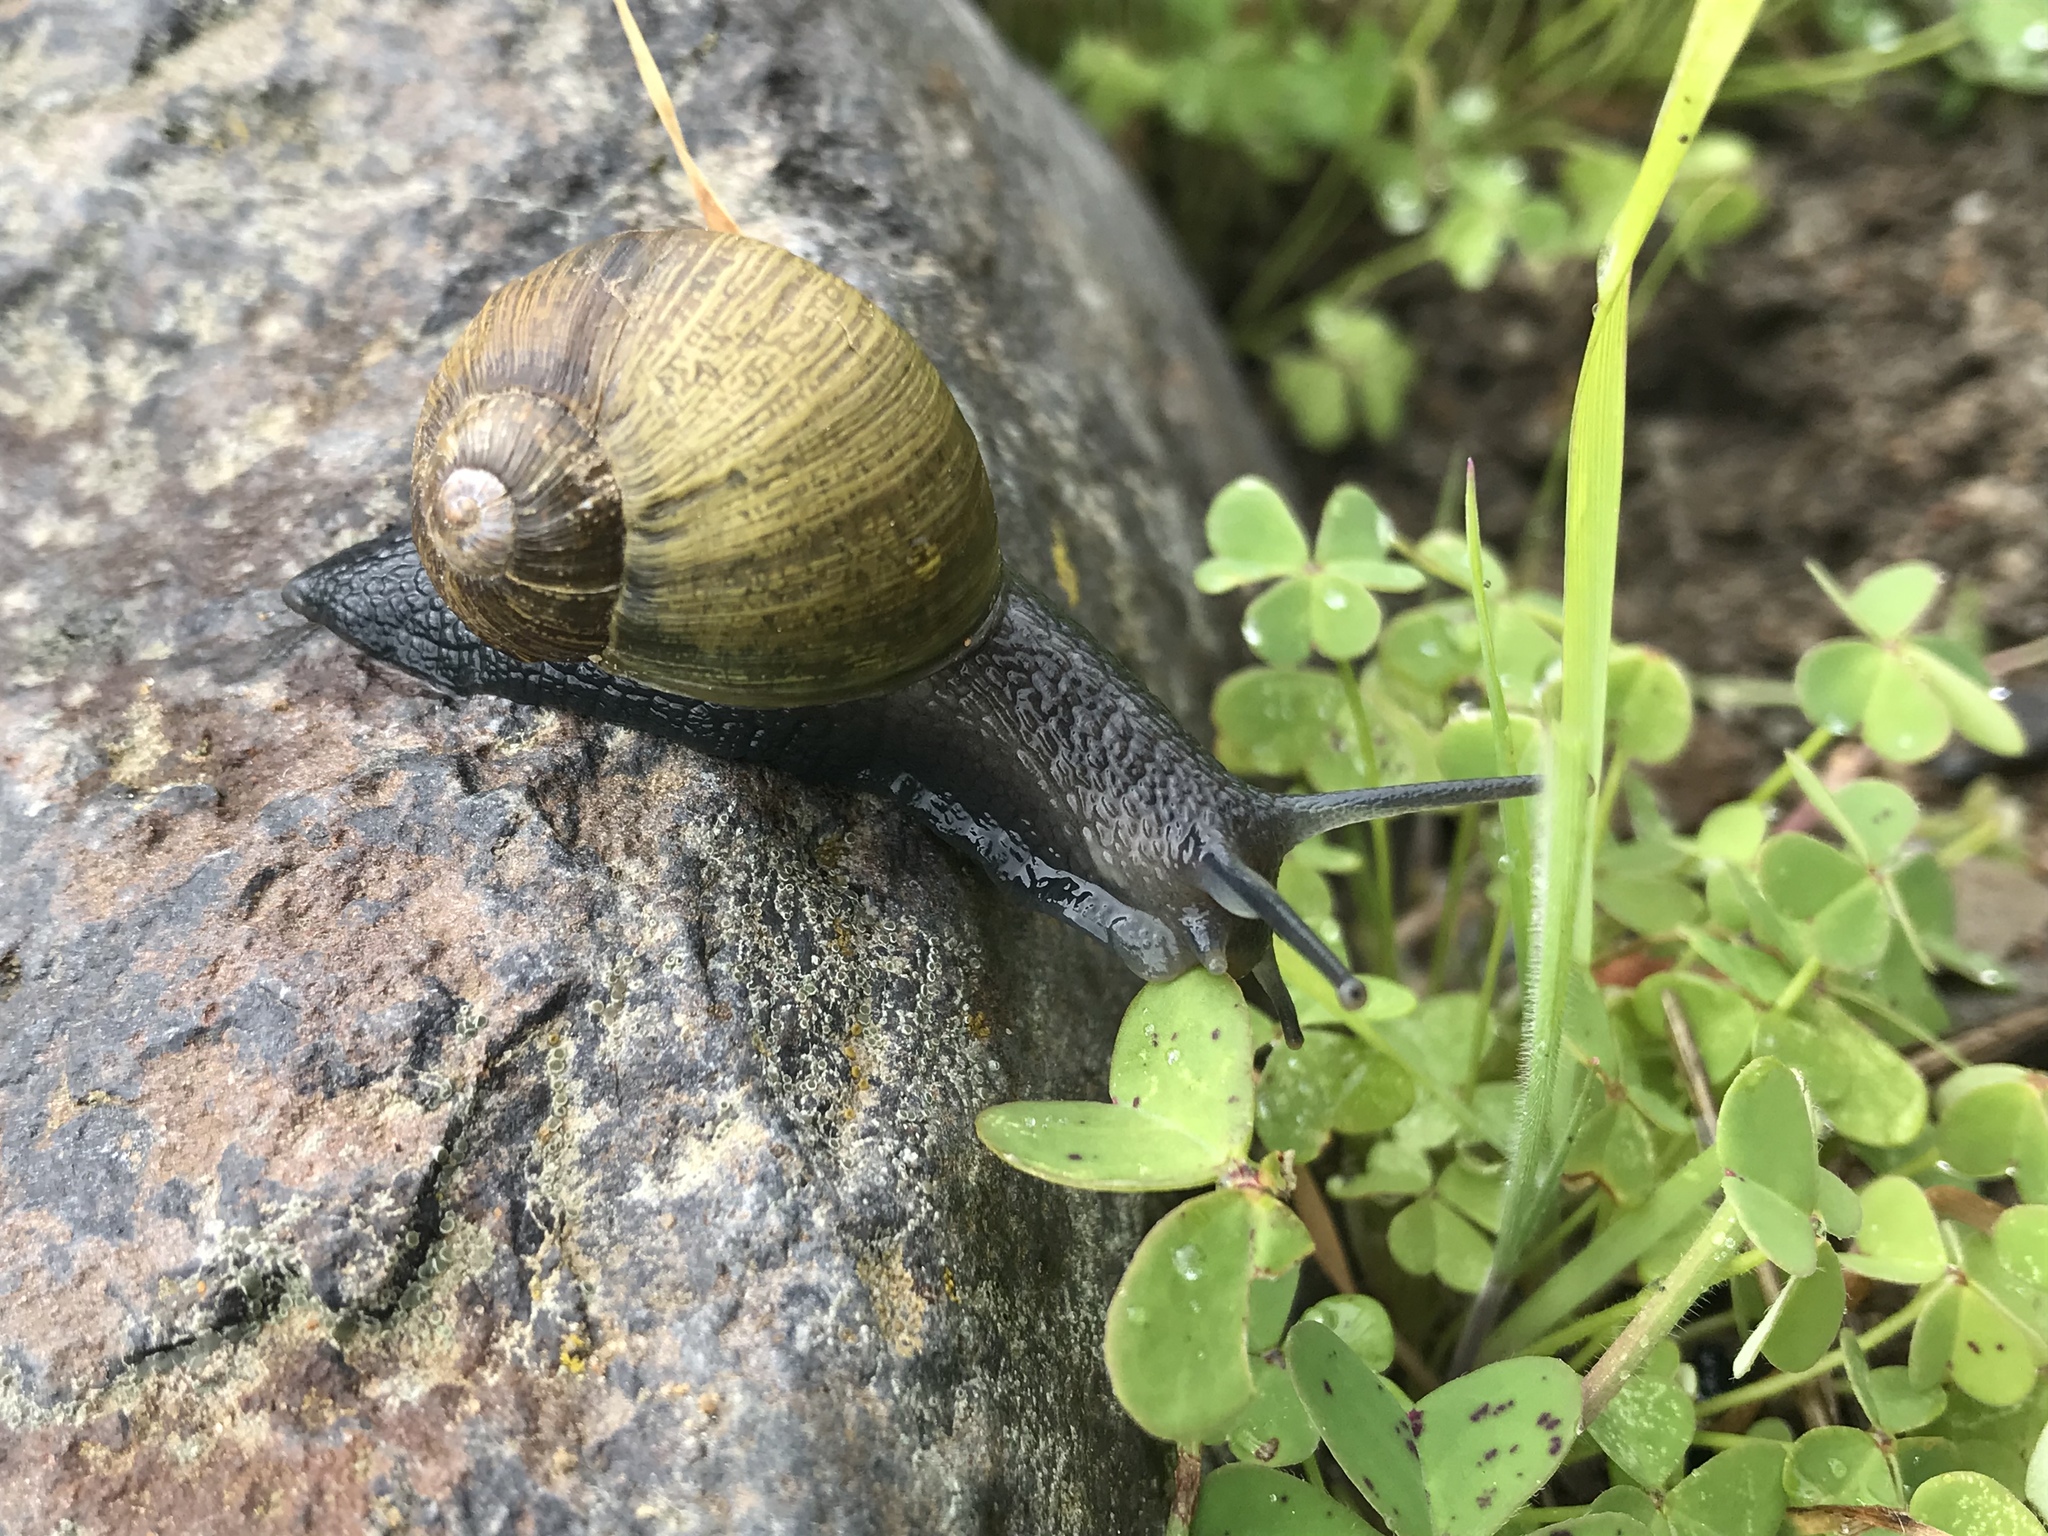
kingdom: Animalia
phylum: Mollusca
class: Gastropoda
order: Stylommatophora
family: Helicidae
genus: Cantareus
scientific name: Cantareus apertus
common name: Green gardensnail
